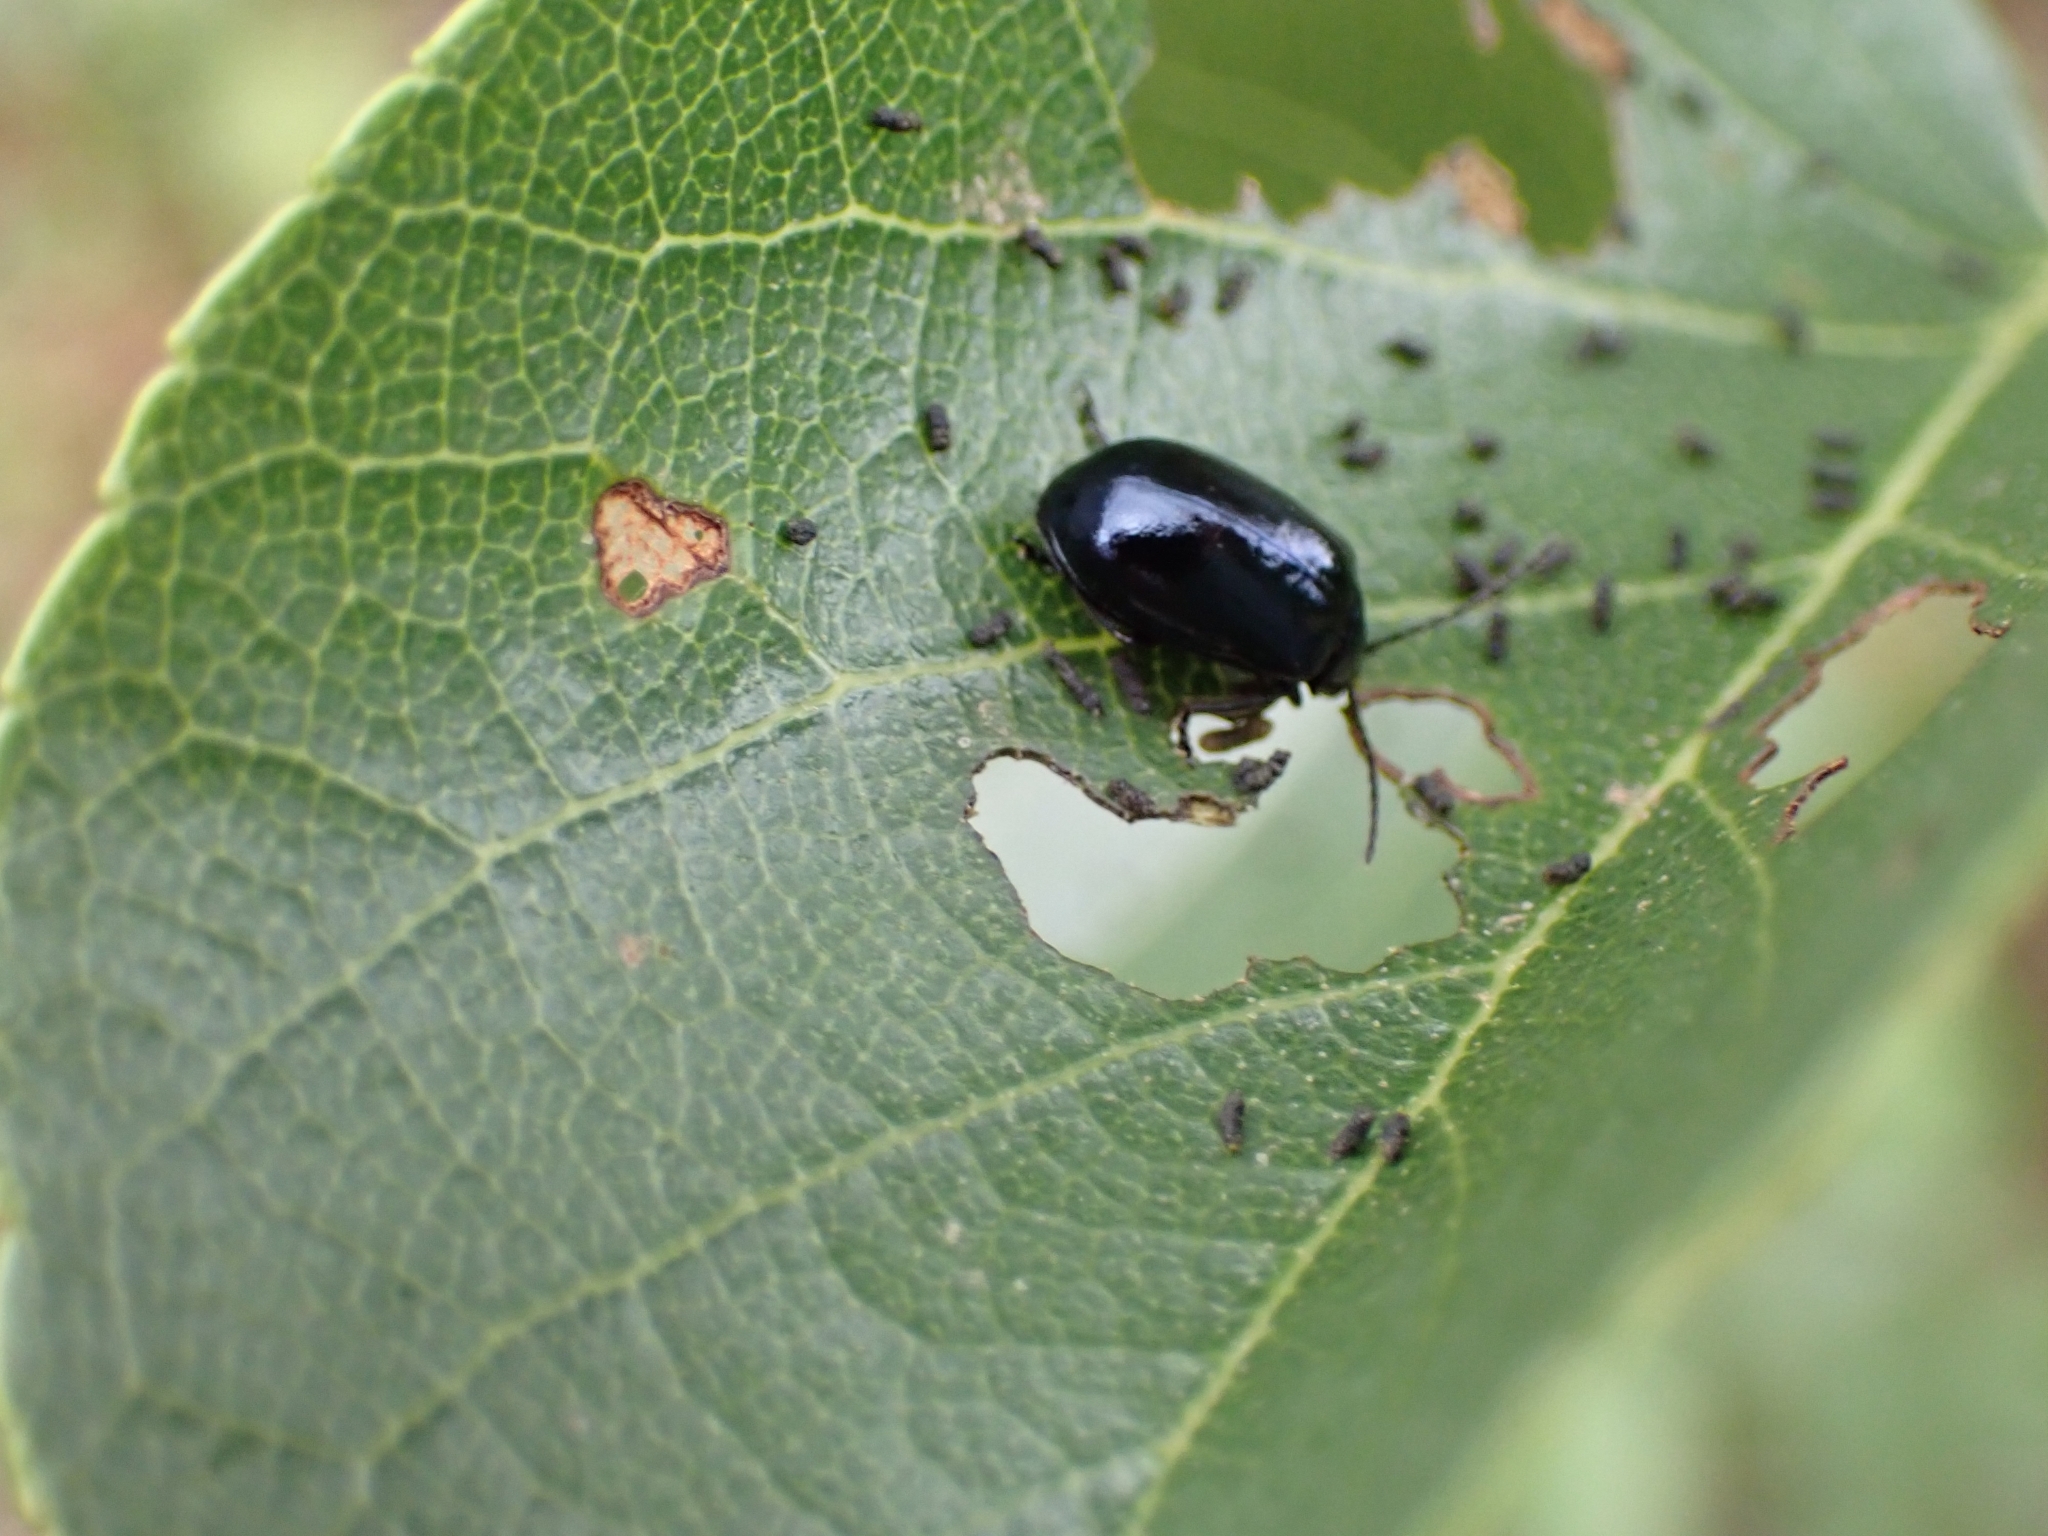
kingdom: Animalia
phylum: Arthropoda
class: Insecta
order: Coleoptera
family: Chrysomelidae
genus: Agelastica
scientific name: Agelastica alni
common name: Alder leaf beetle
